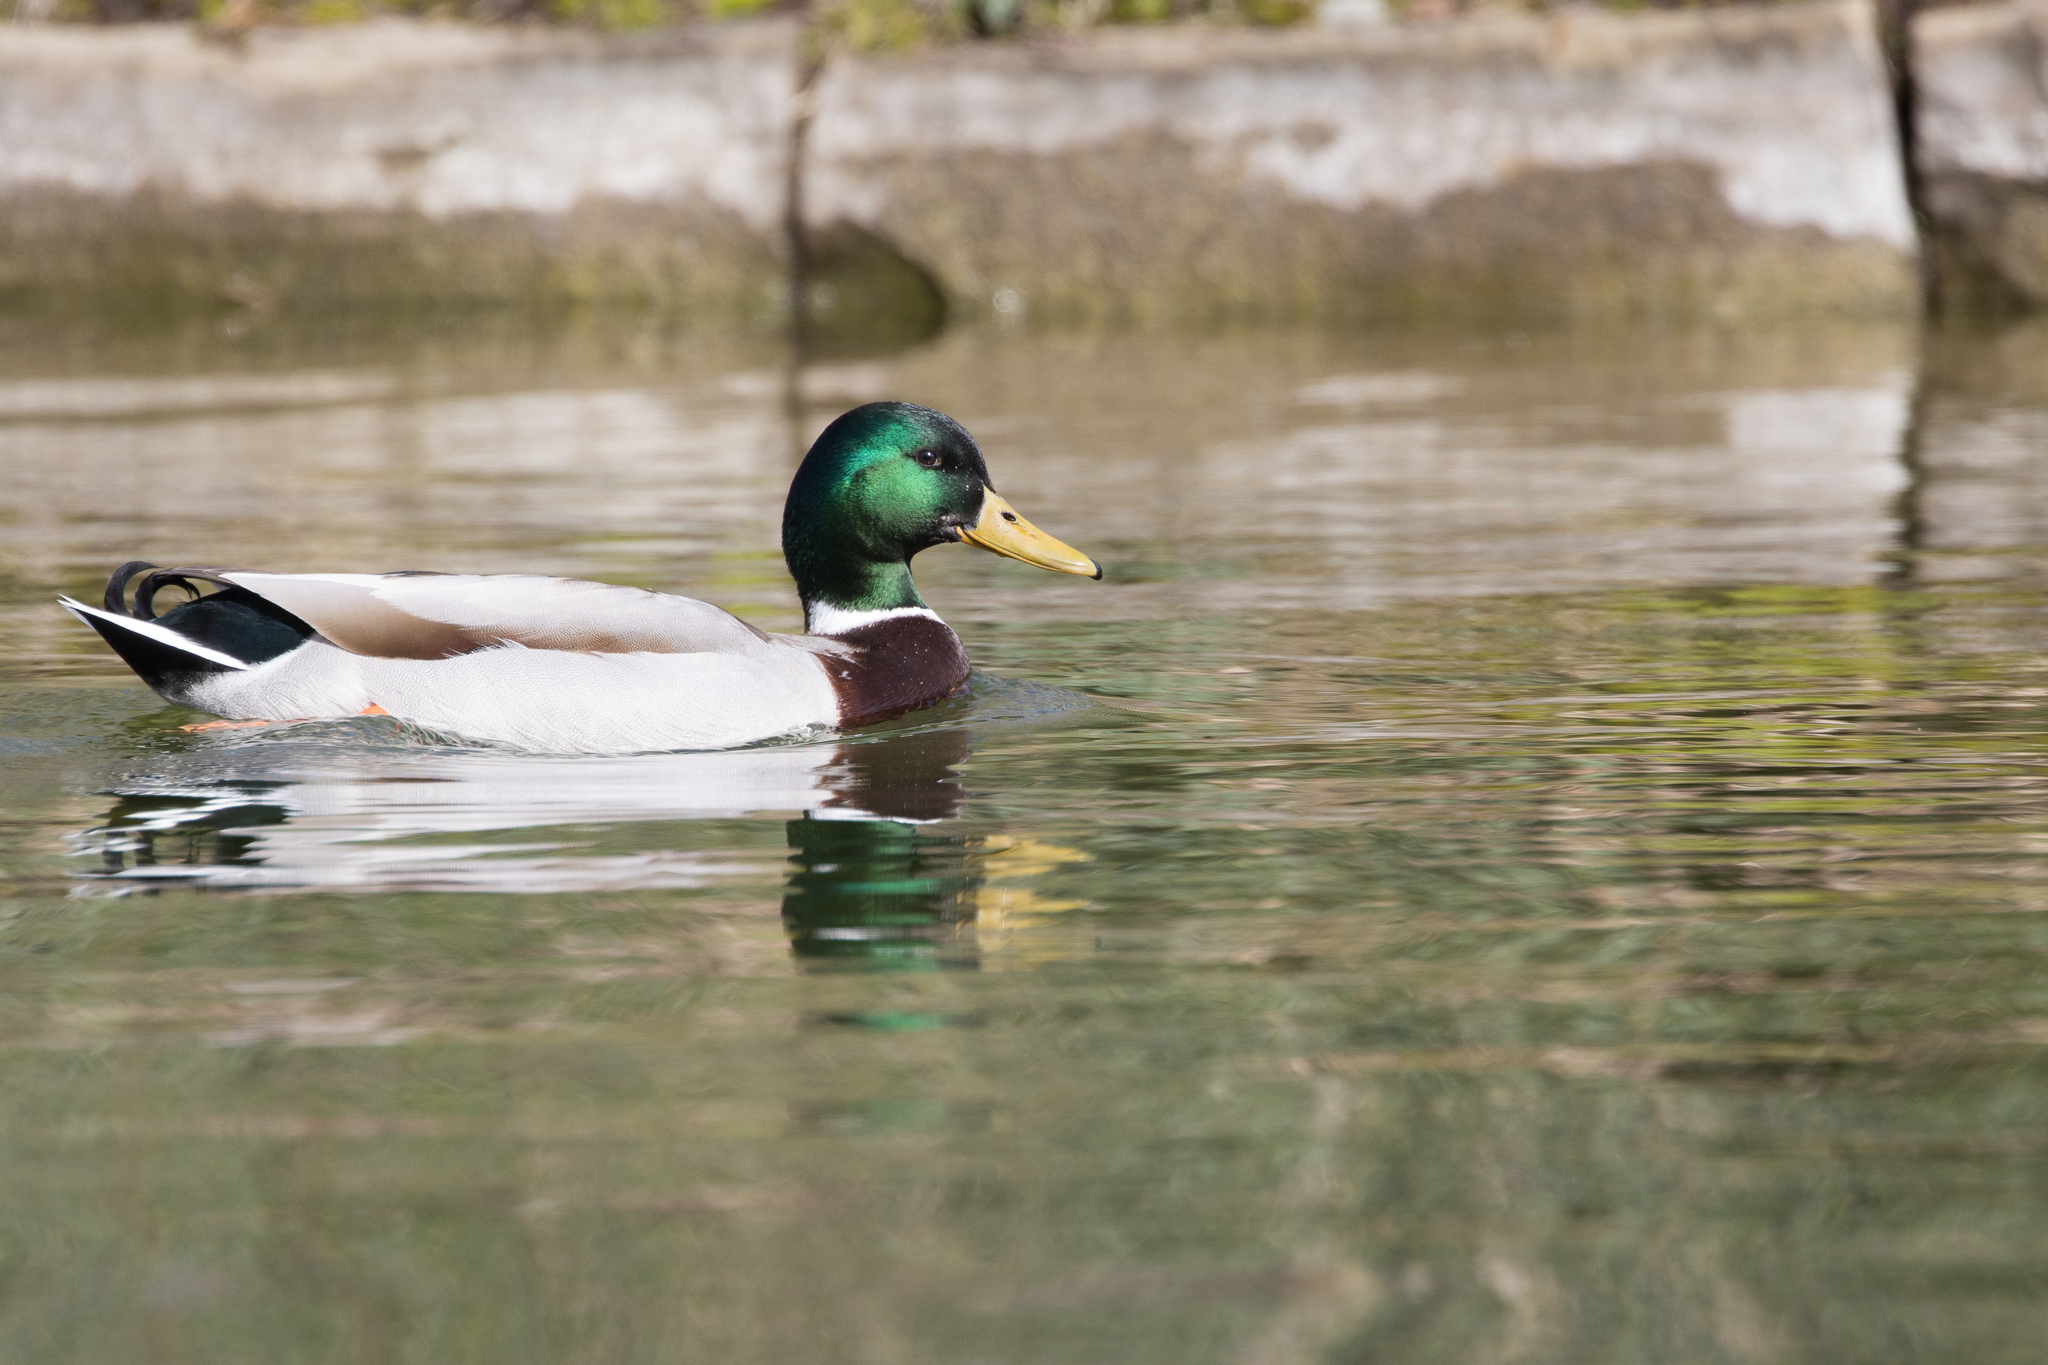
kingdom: Animalia
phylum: Chordata
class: Aves
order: Anseriformes
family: Anatidae
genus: Anas
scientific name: Anas platyrhynchos
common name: Mallard
